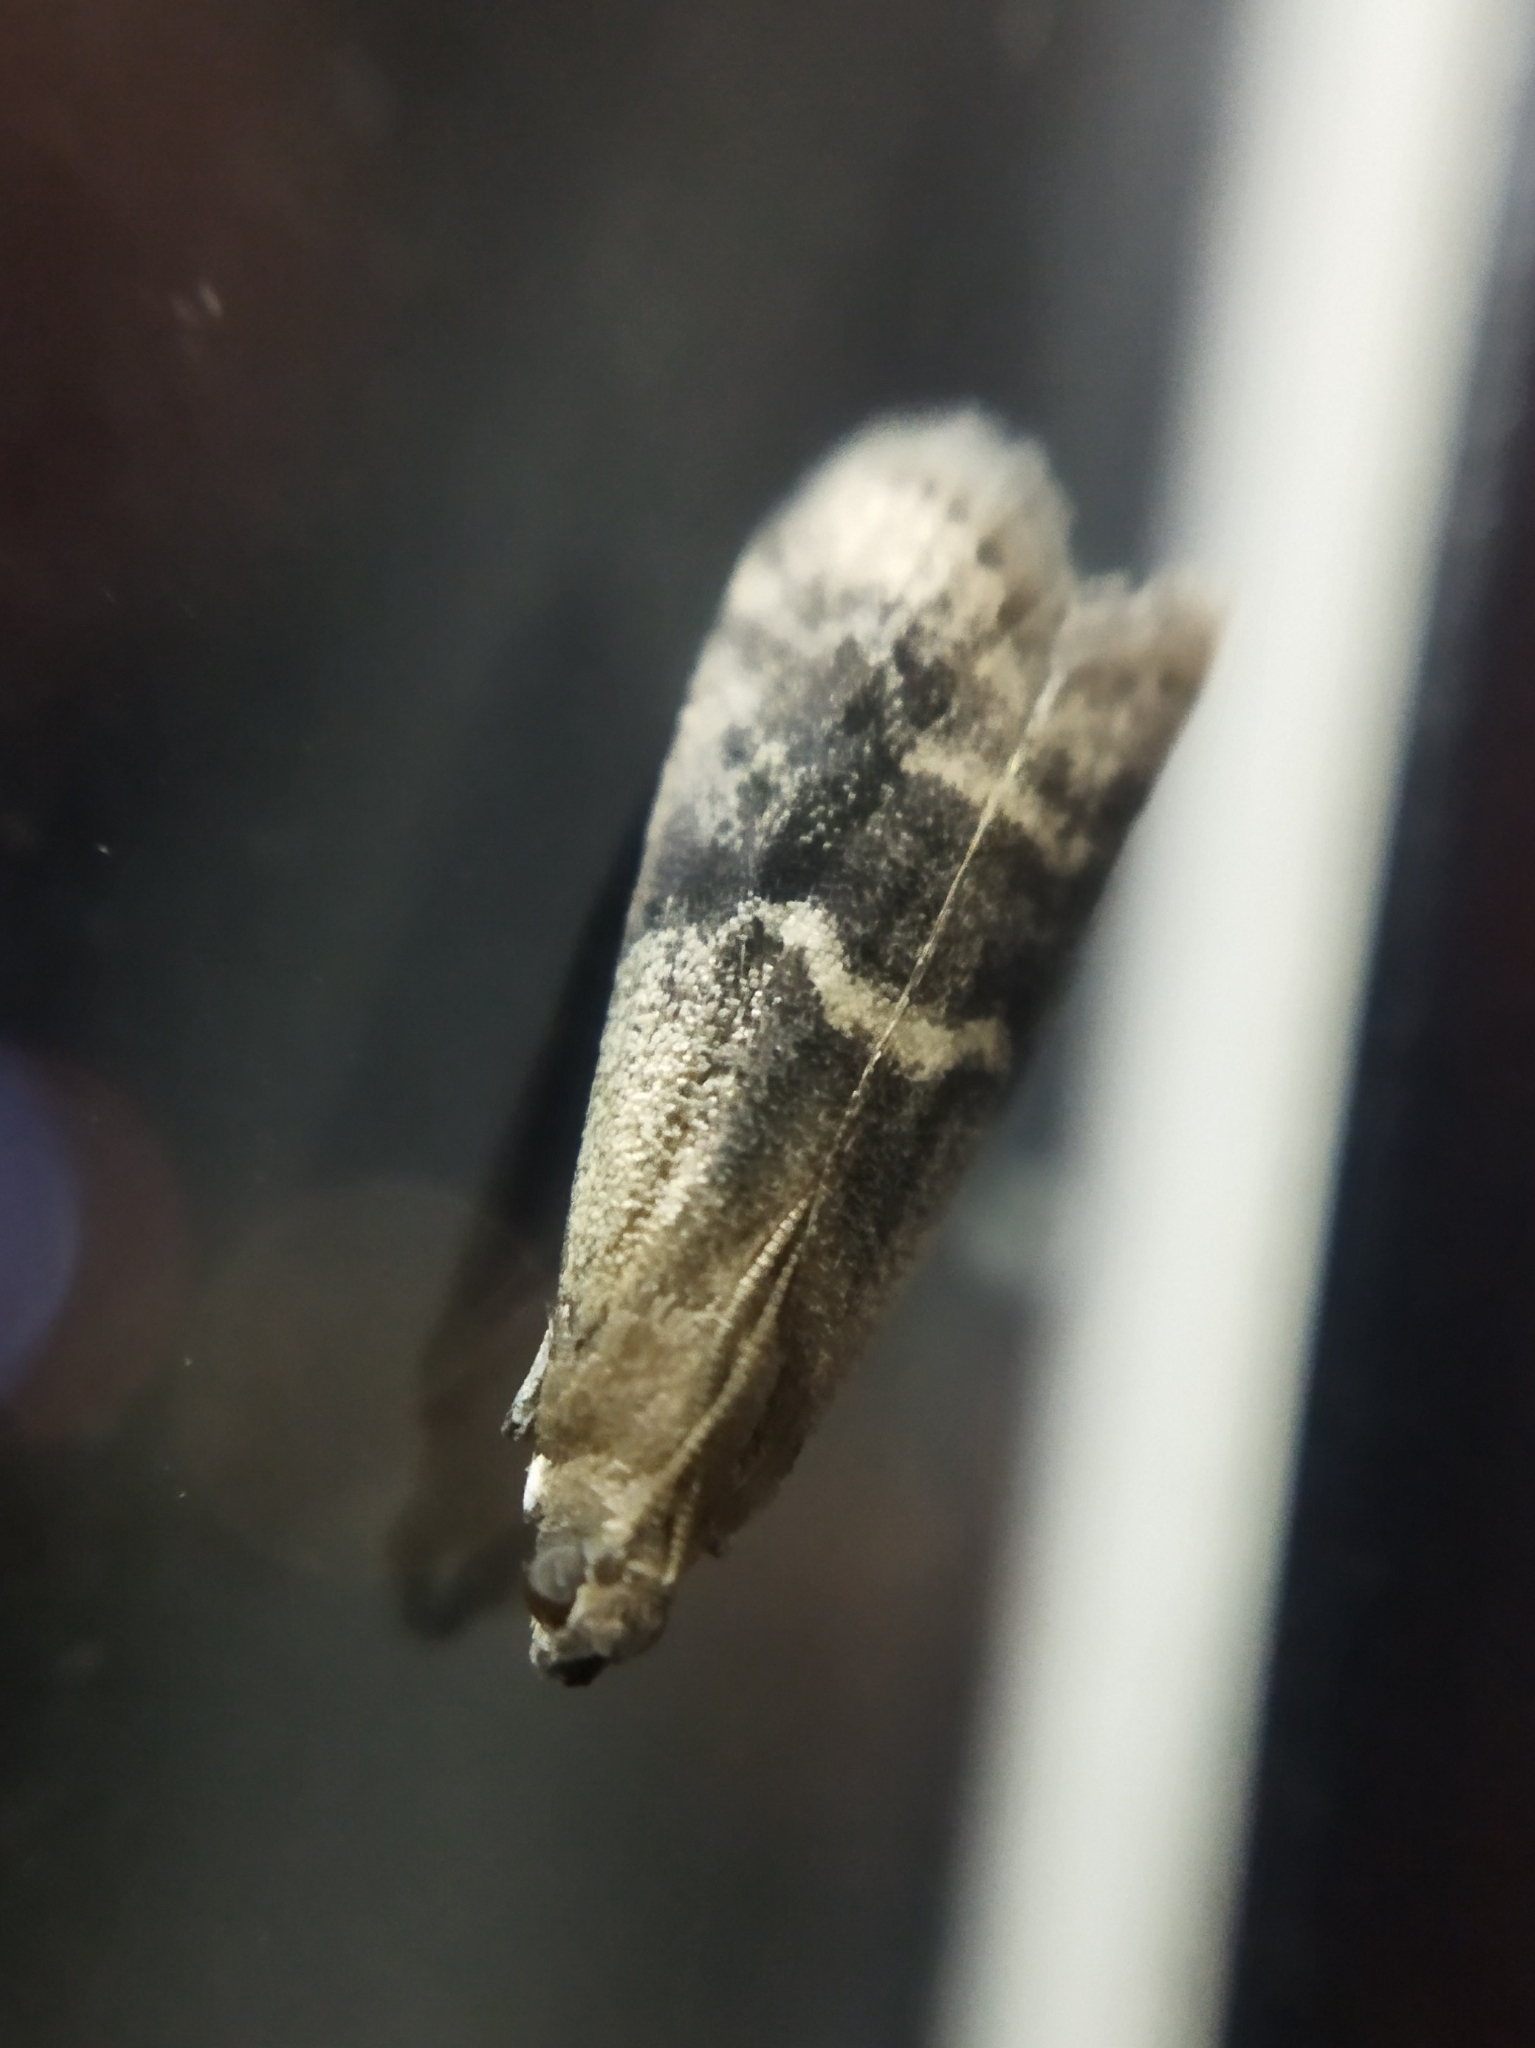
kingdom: Animalia
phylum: Arthropoda
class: Insecta
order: Lepidoptera
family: Pyralidae
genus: Euzophera
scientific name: Euzophera bigella
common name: Peach knot-horn
